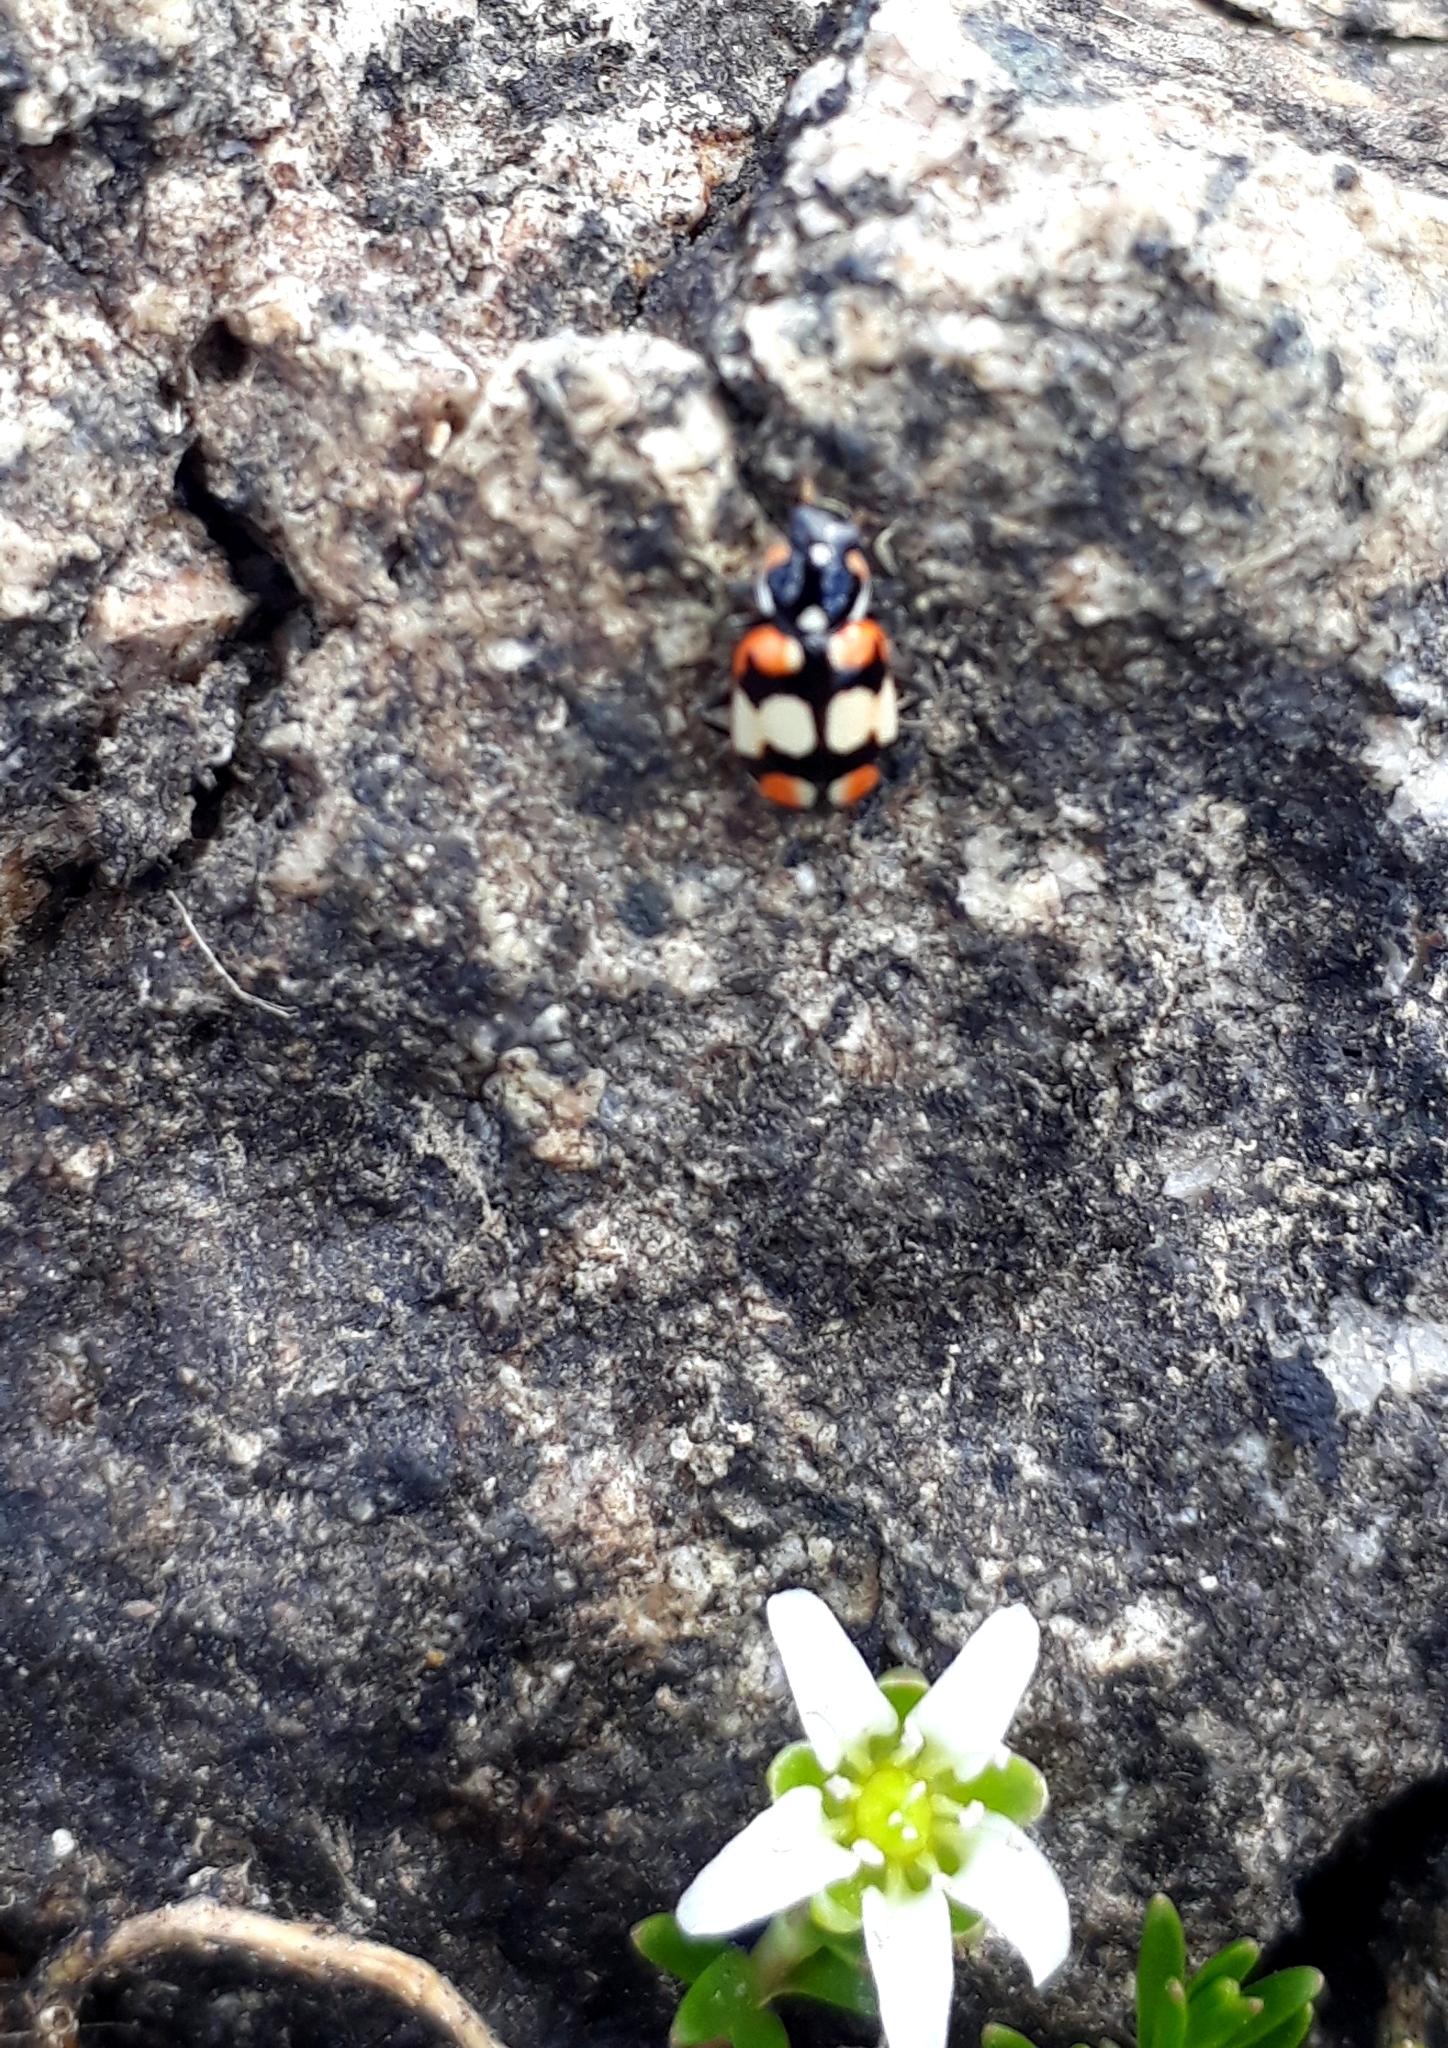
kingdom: Animalia
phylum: Arthropoda
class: Insecta
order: Coleoptera
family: Coccinellidae
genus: Eriopis
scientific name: Eriopis chilensis
